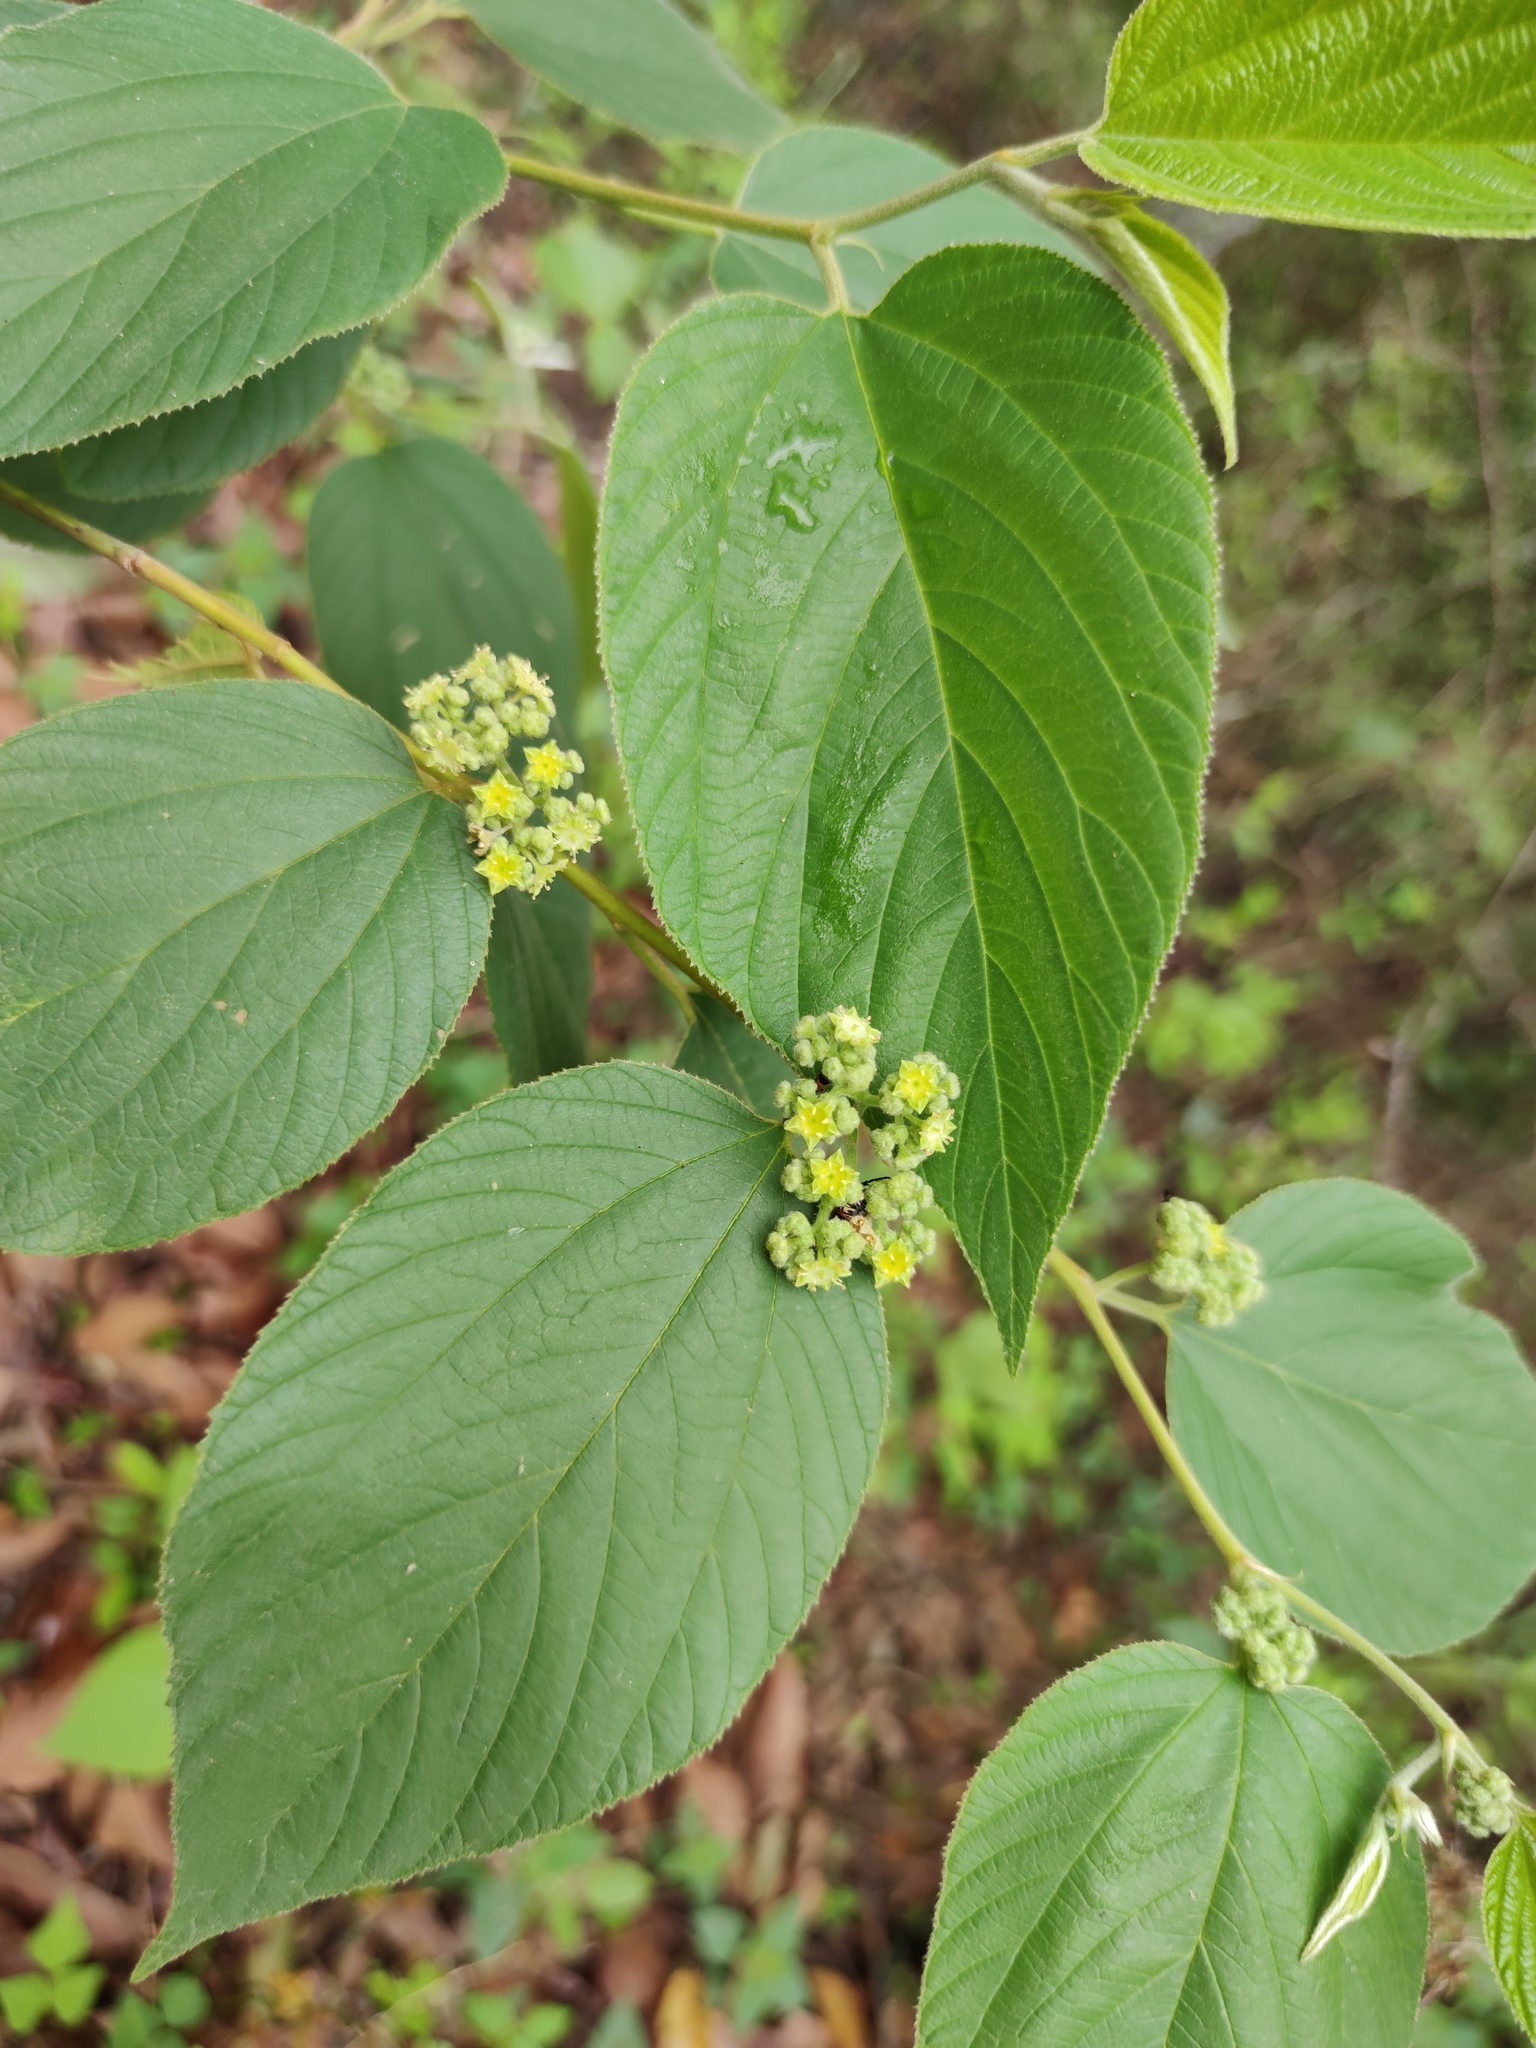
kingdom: Plantae
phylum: Tracheophyta
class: Magnoliopsida
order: Rosales
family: Rhamnaceae
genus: Colubrina
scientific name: Colubrina greggii
